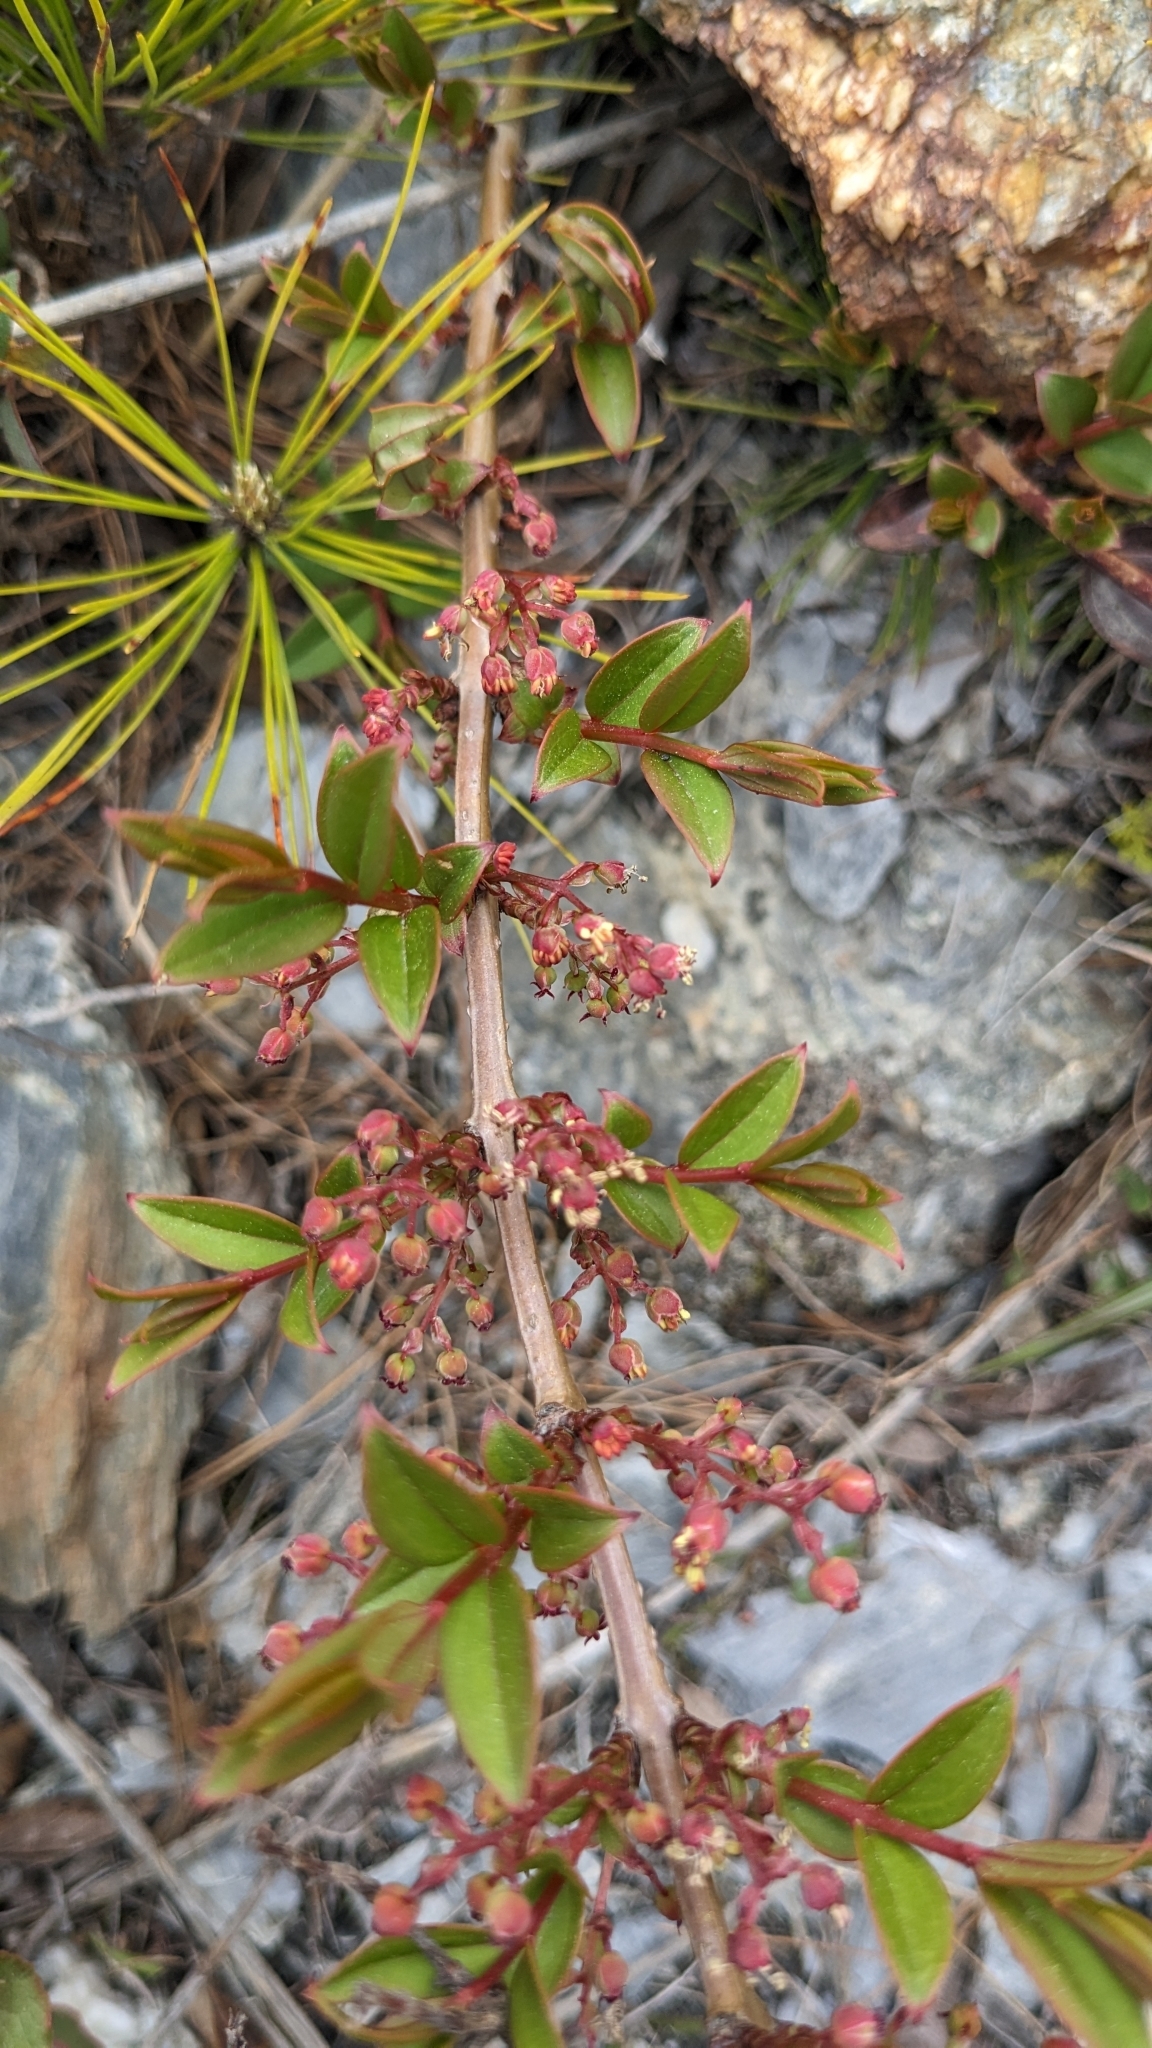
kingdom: Plantae
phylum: Tracheophyta
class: Magnoliopsida
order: Cucurbitales
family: Coriariaceae
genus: Coriaria
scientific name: Coriaria japonica
